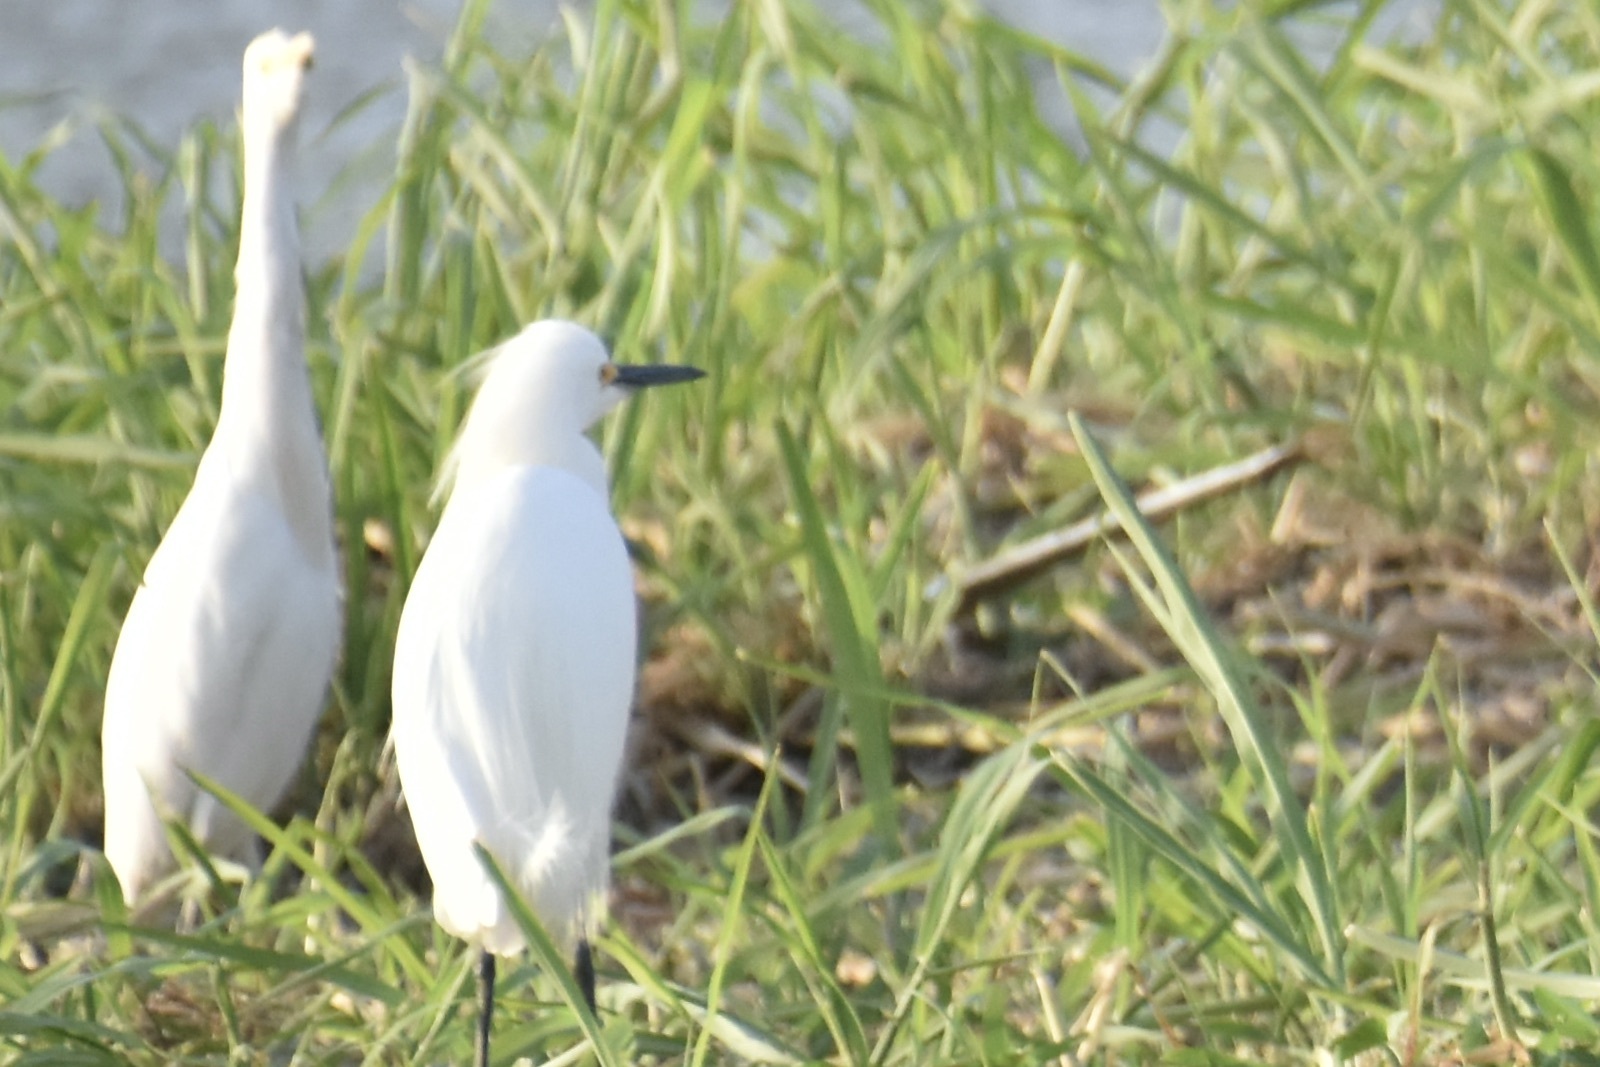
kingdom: Animalia
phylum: Chordata
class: Aves
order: Pelecaniformes
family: Ardeidae
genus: Egretta
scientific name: Egretta thula
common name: Snowy egret
